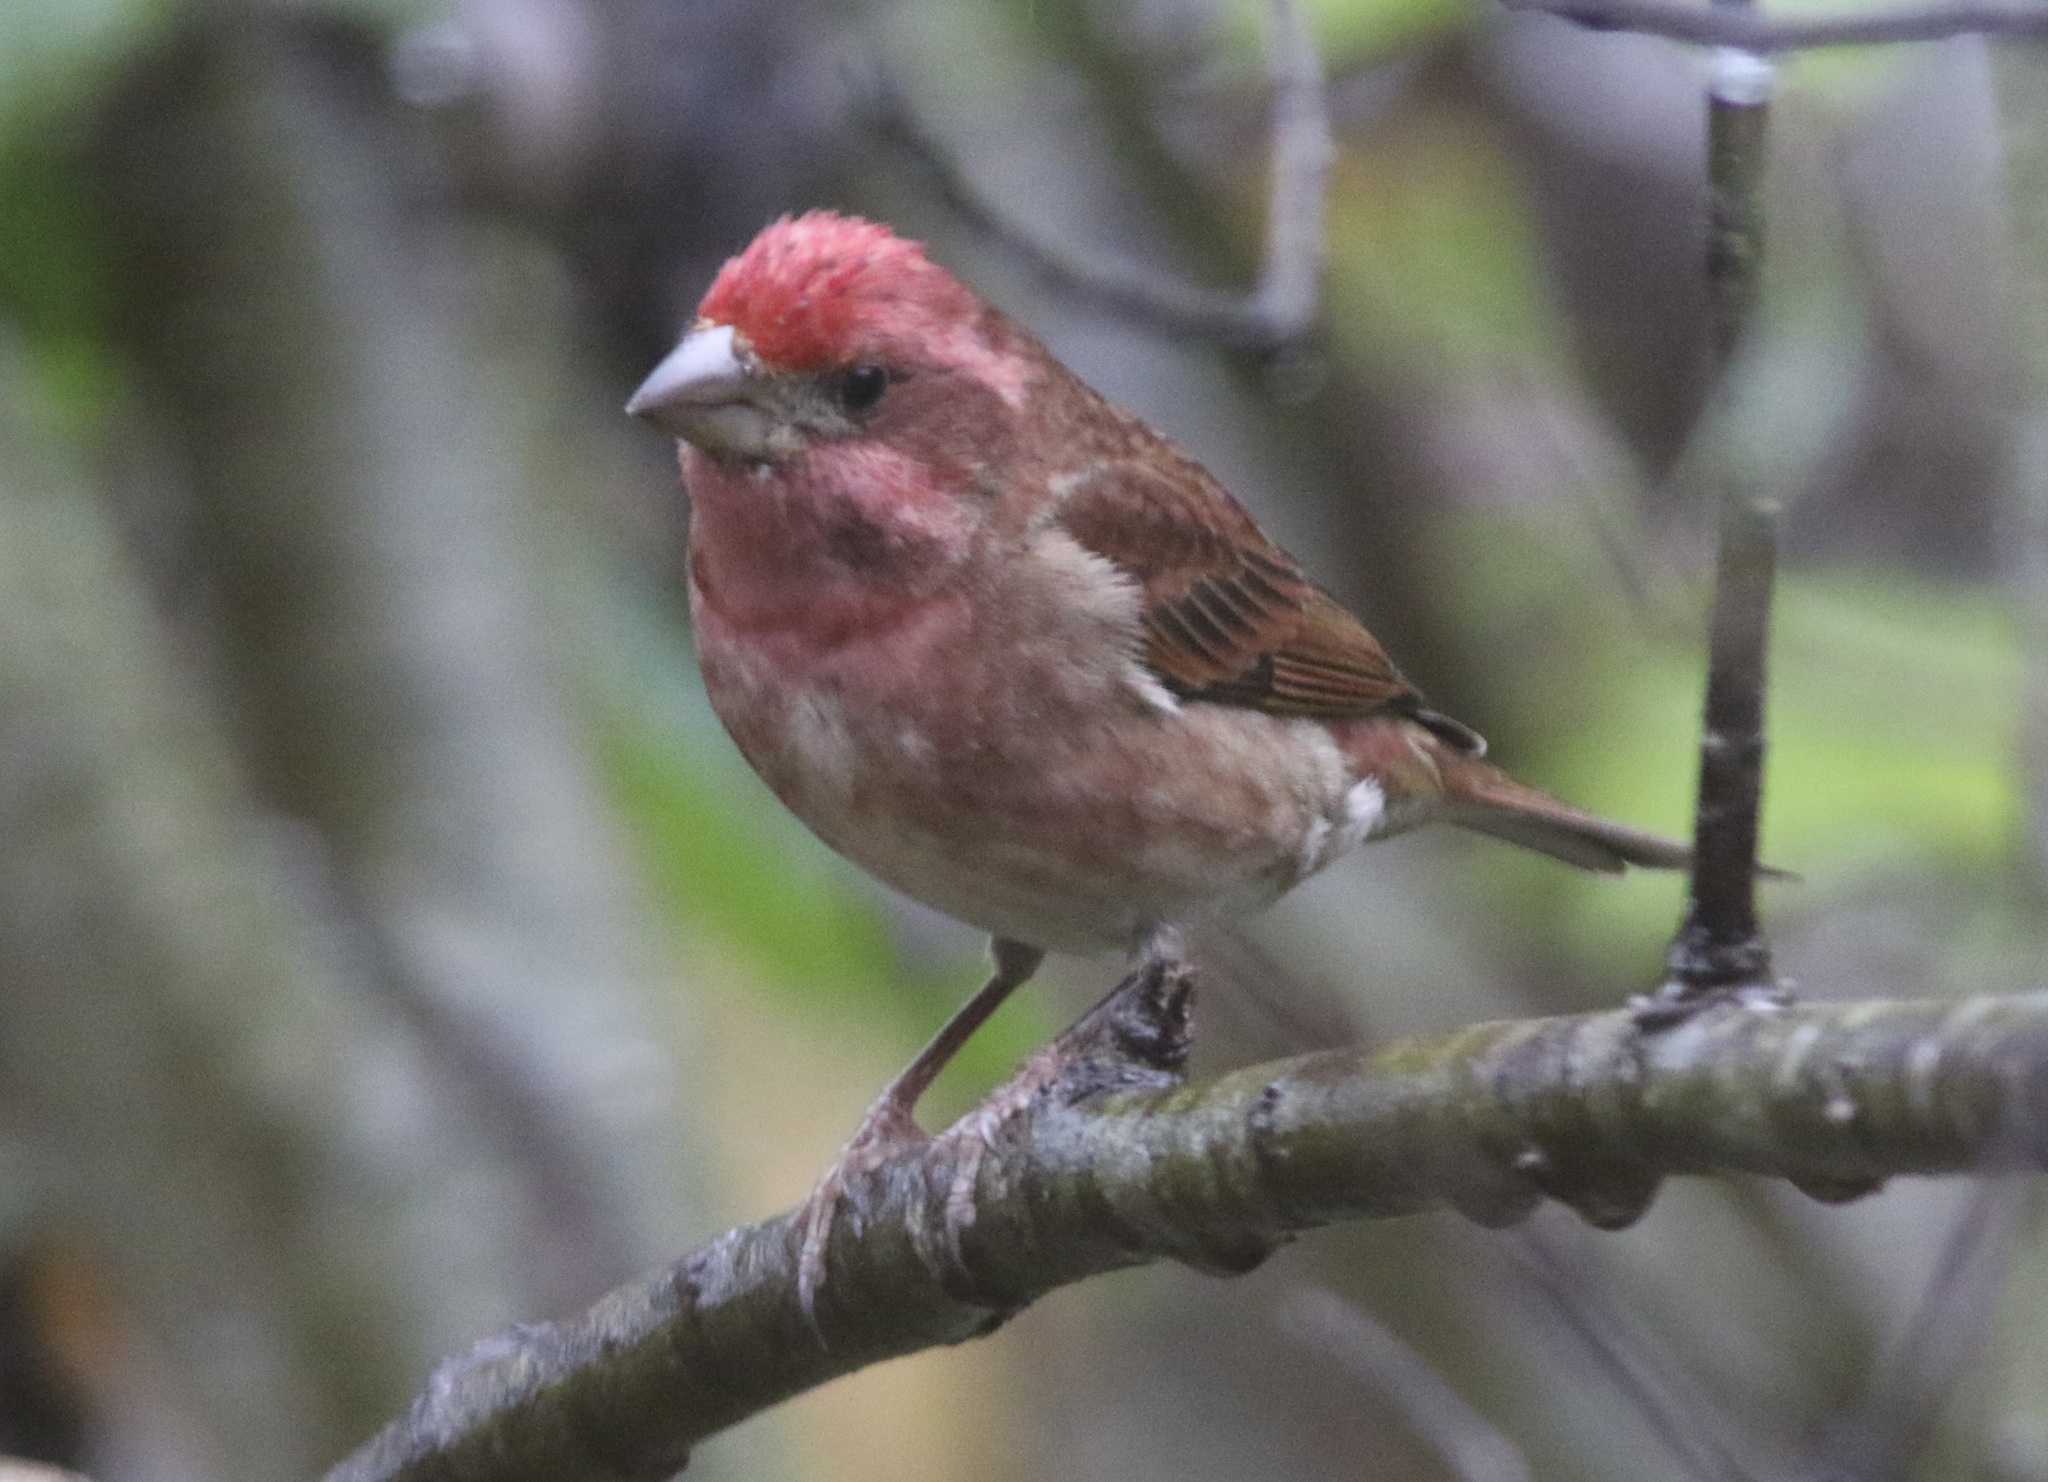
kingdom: Animalia
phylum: Chordata
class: Aves
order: Passeriformes
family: Fringillidae
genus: Haemorhous
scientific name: Haemorhous purpureus
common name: Purple finch
